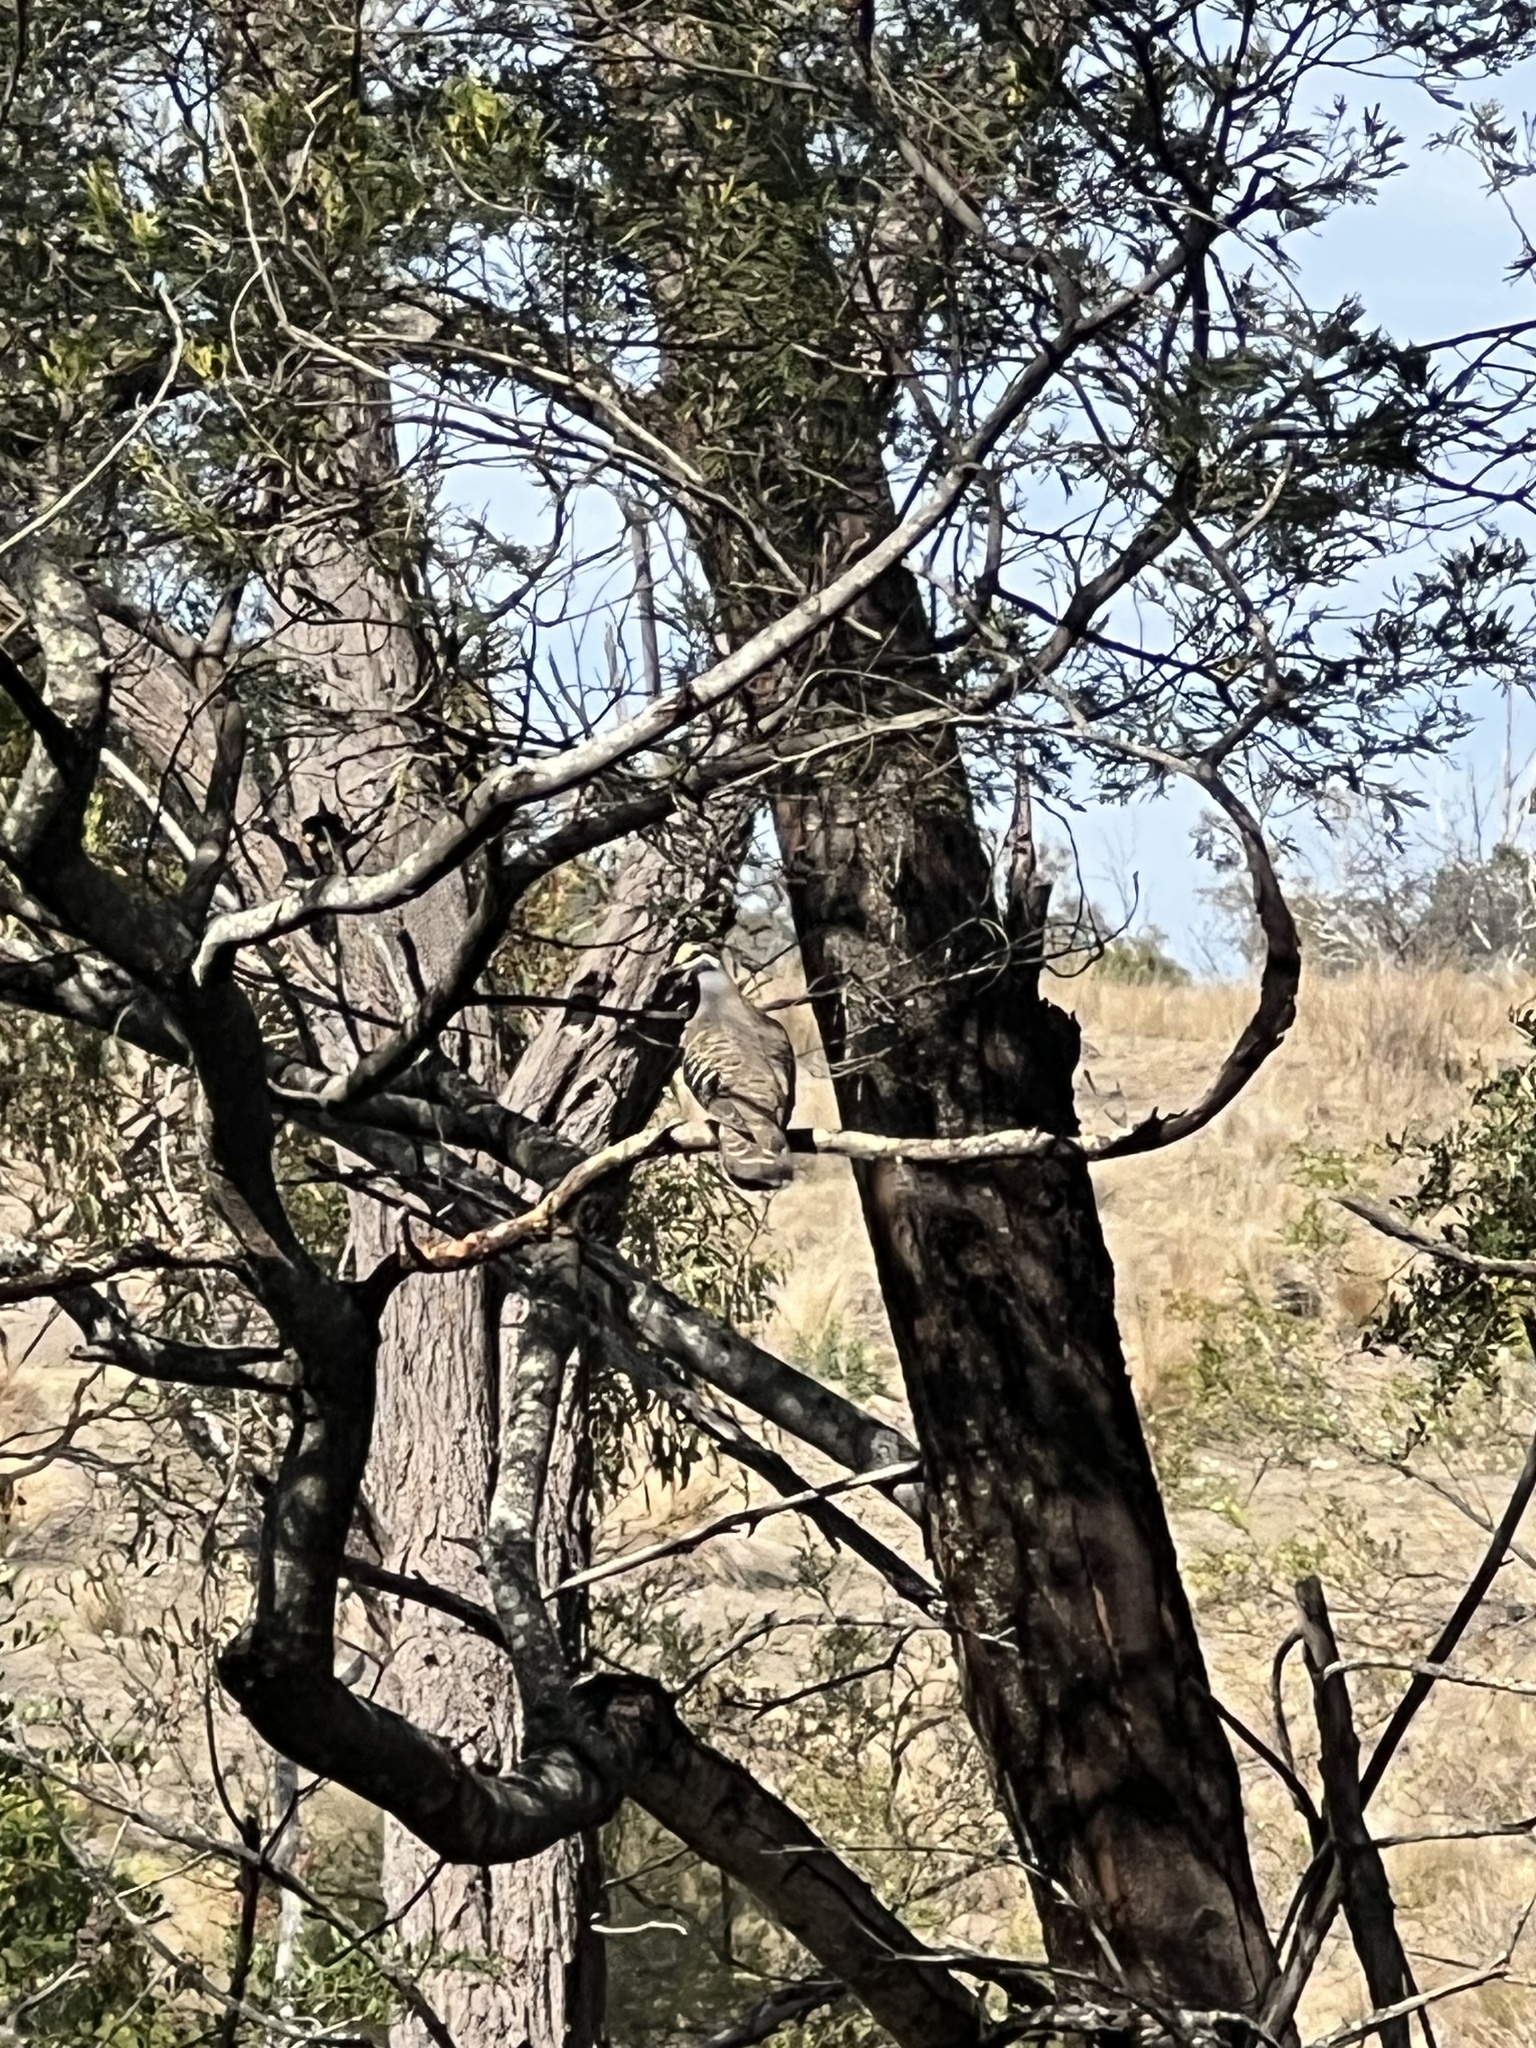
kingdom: Animalia
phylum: Chordata
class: Aves
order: Columbiformes
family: Columbidae
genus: Phaps
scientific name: Phaps chalcoptera
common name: Common bronzewing
